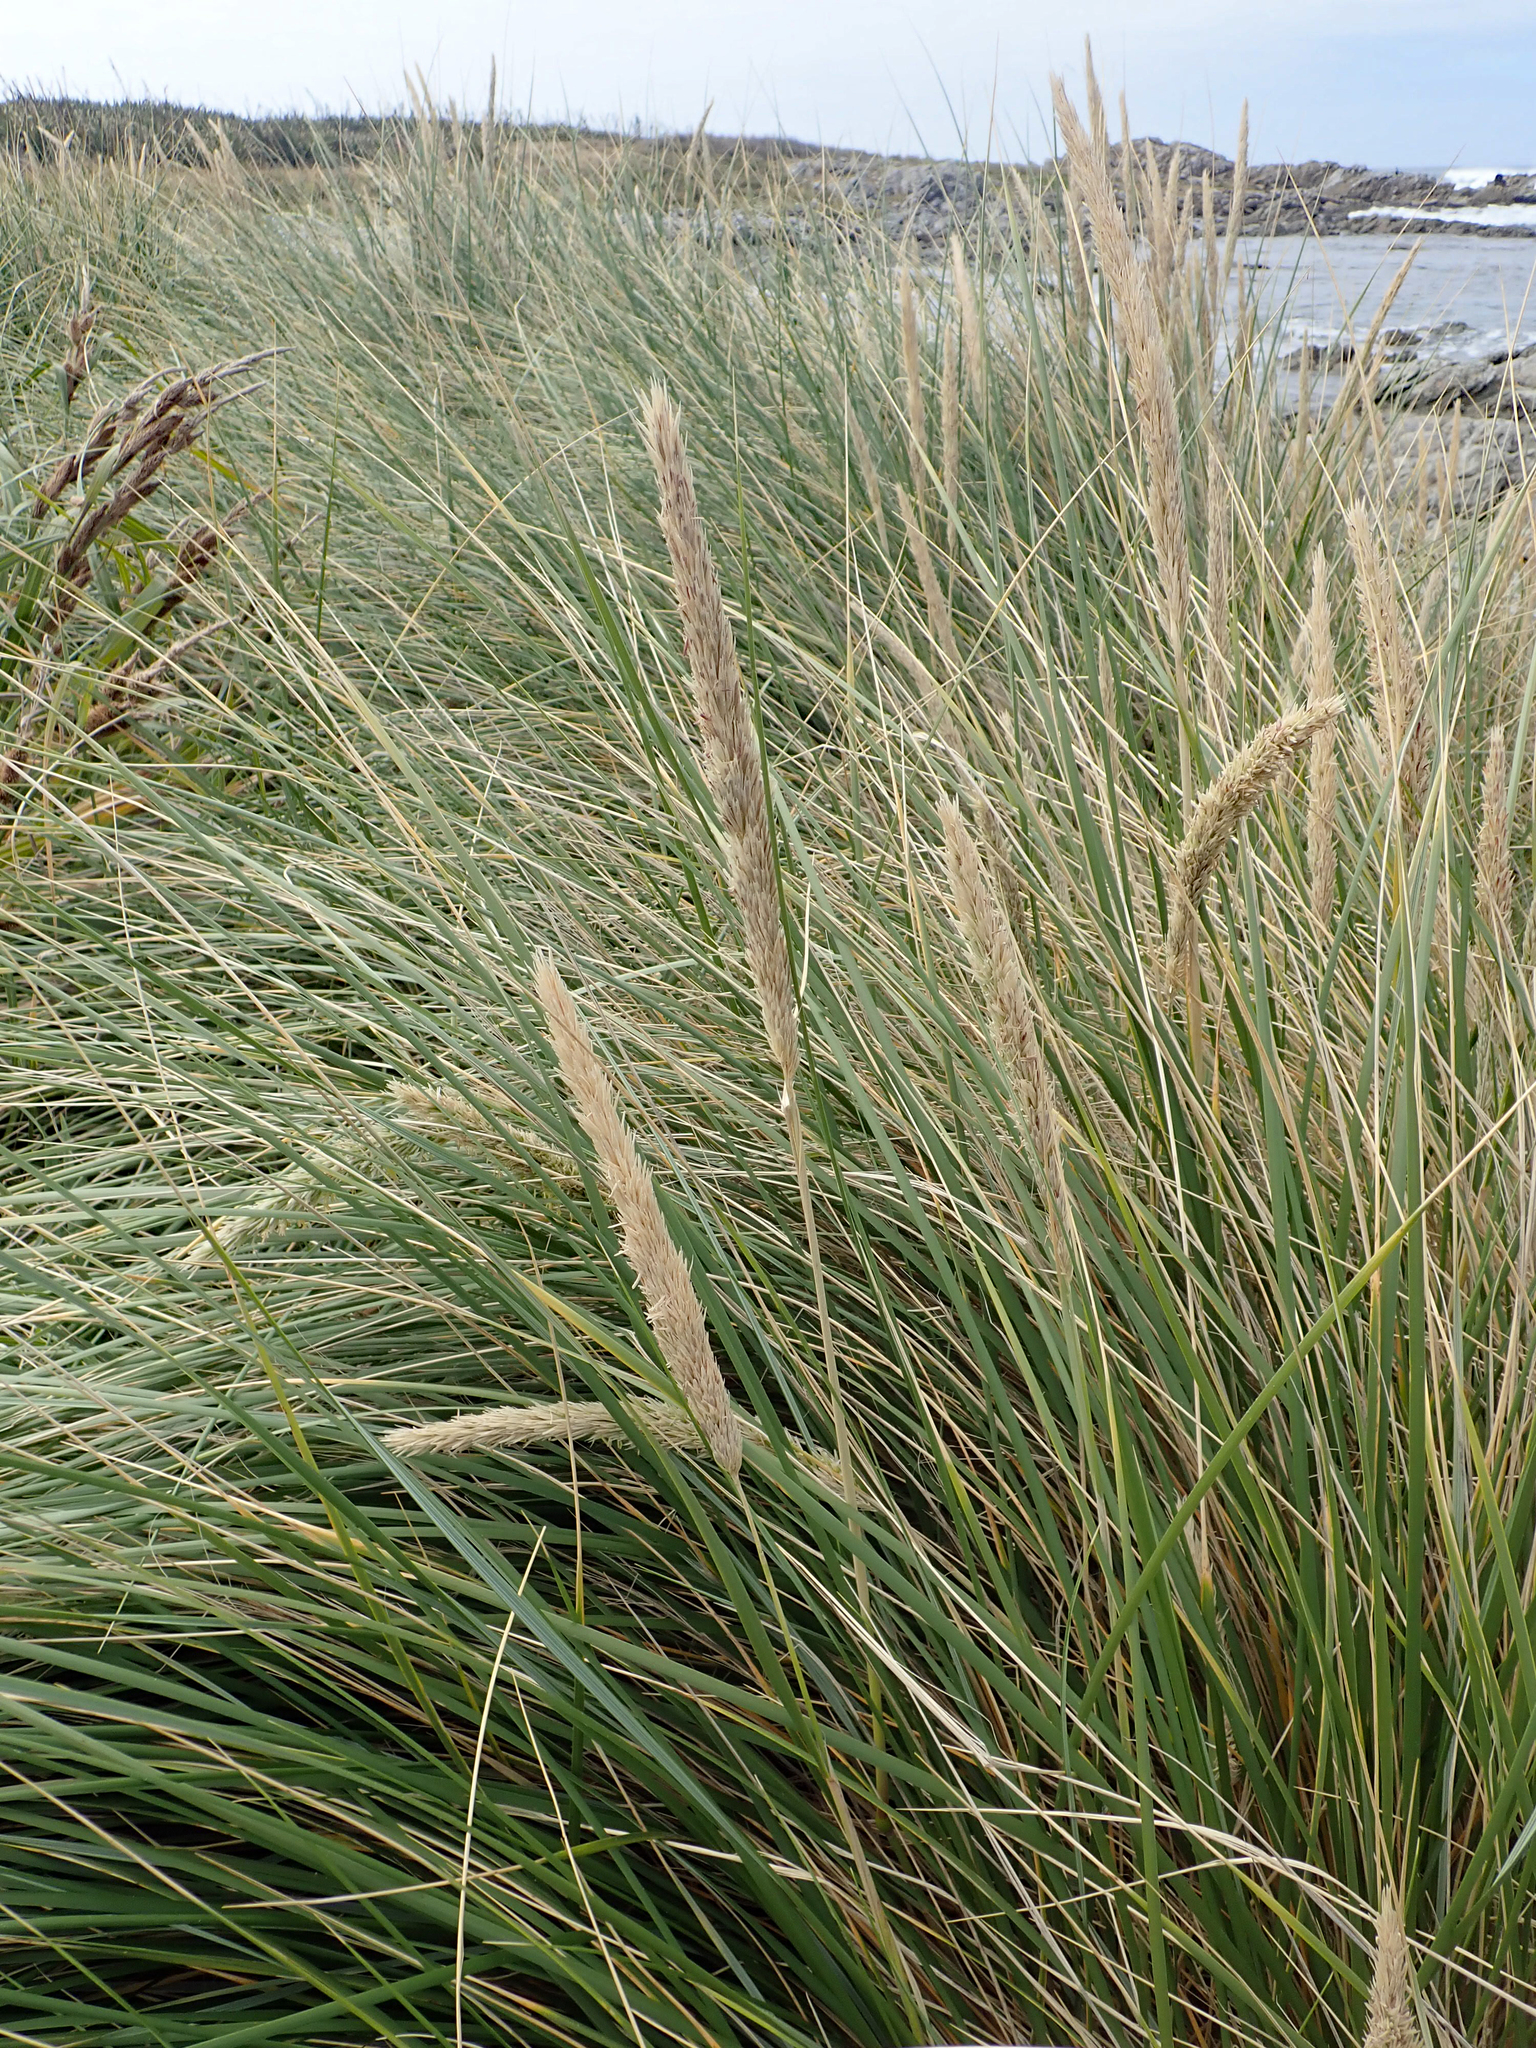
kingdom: Plantae
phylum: Tracheophyta
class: Liliopsida
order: Poales
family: Poaceae
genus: Calamagrostis
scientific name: Calamagrostis arenaria
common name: European beachgrass
